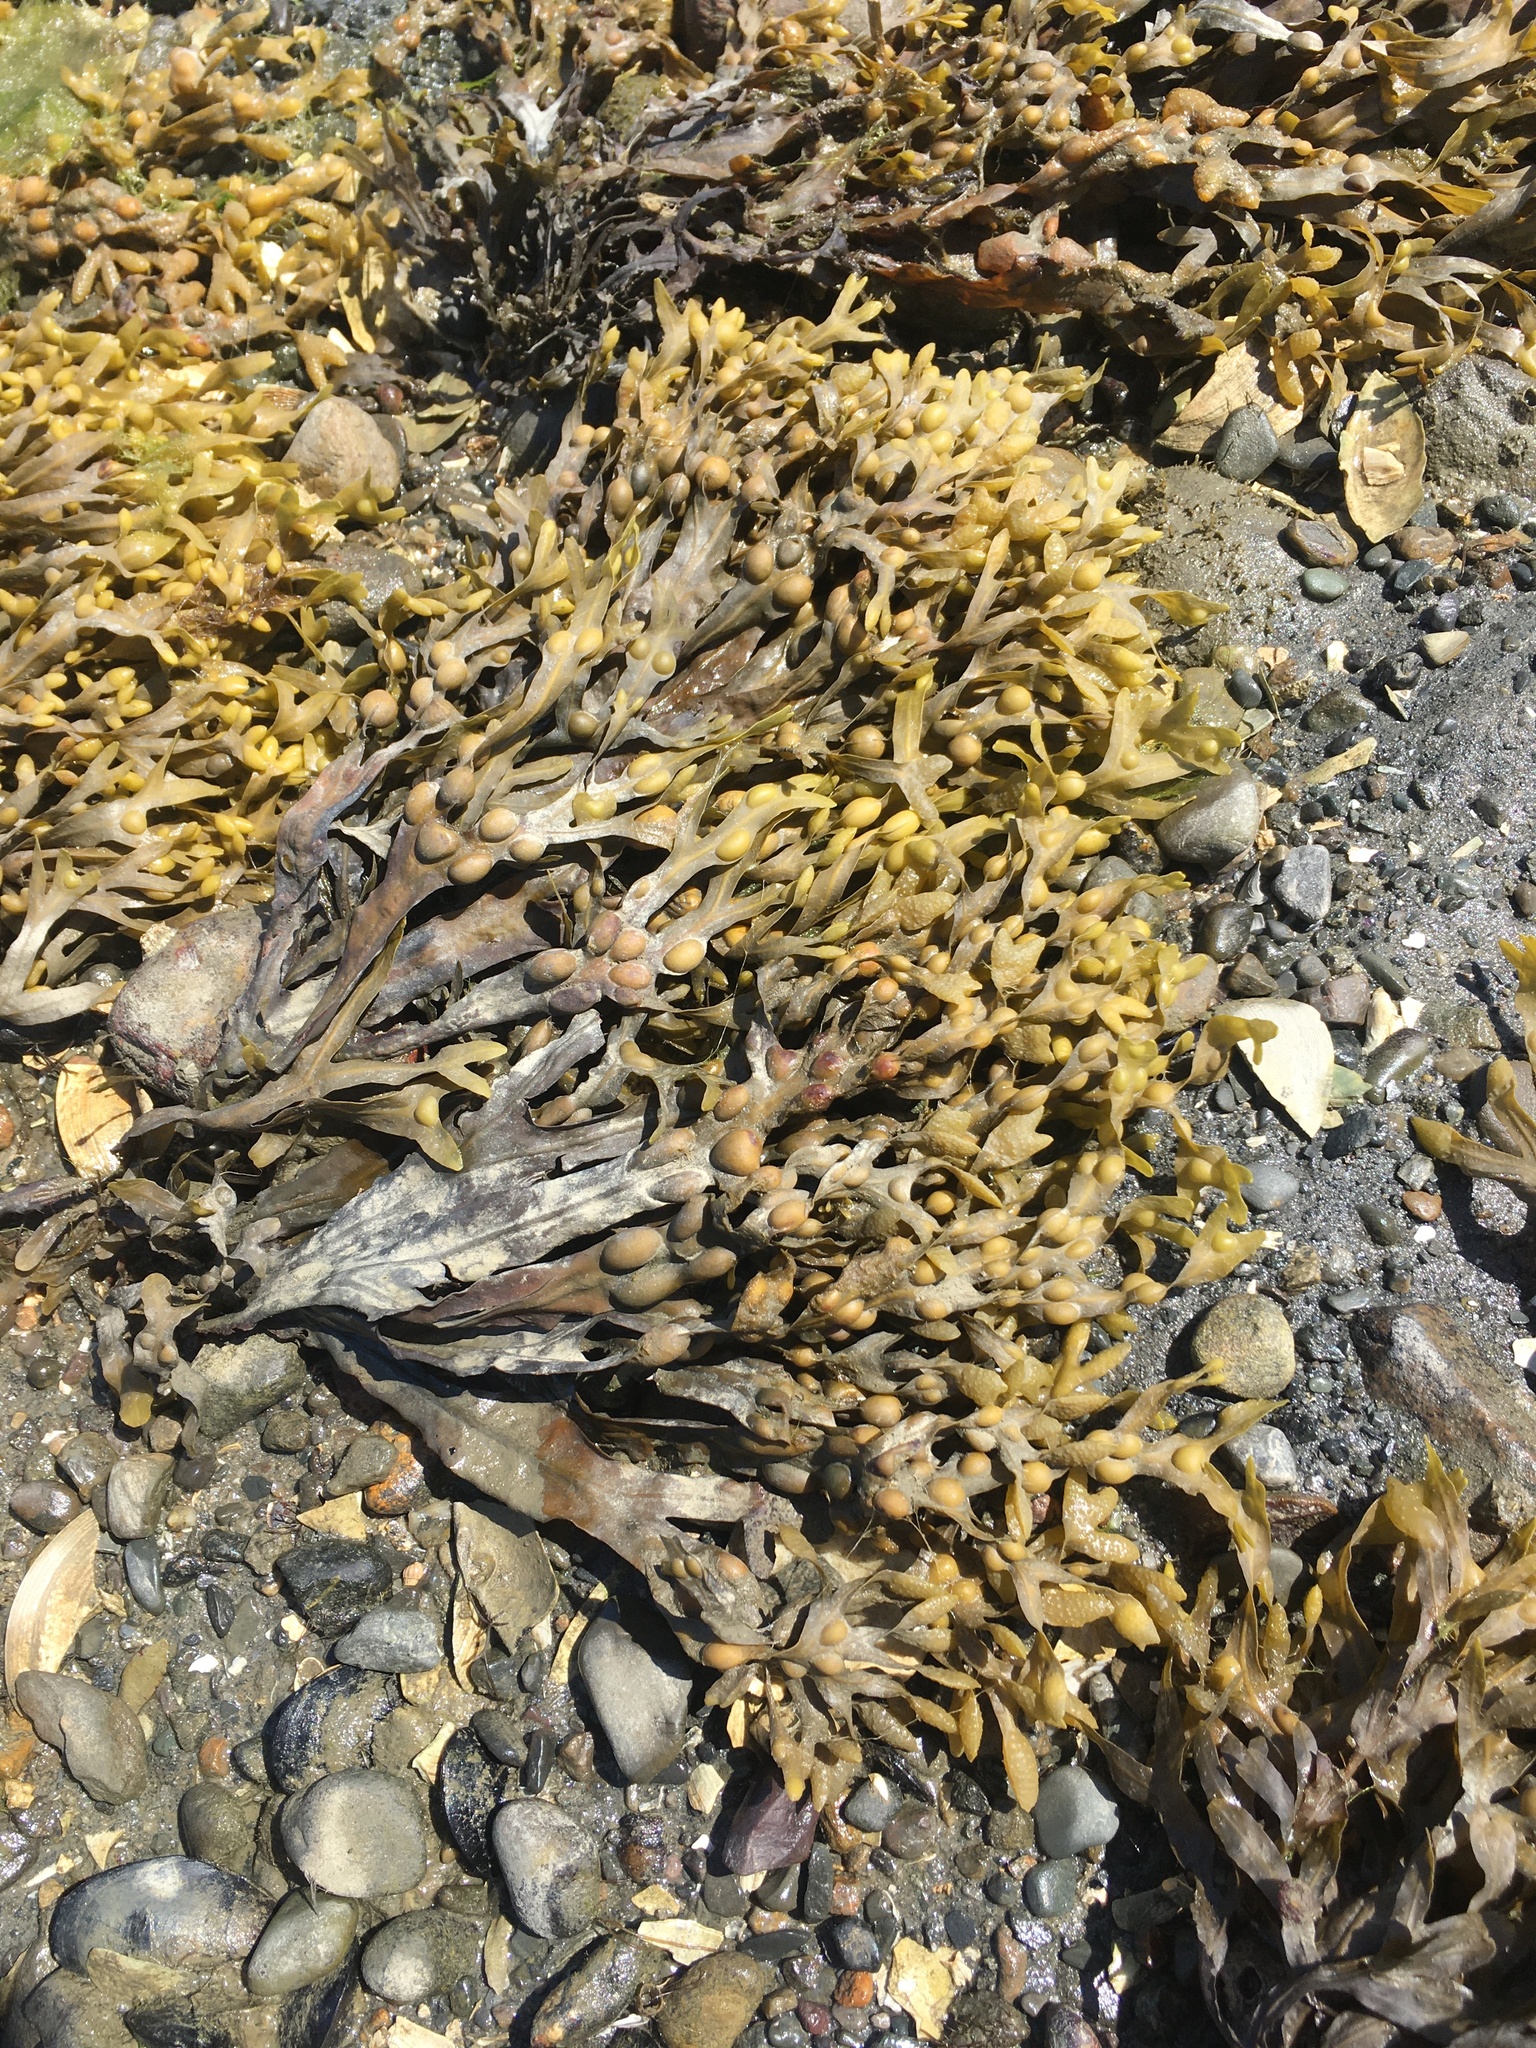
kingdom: Chromista
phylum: Ochrophyta
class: Phaeophyceae
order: Fucales
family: Fucaceae
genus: Fucus
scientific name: Fucus vesiculosus
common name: Bladder wrack
